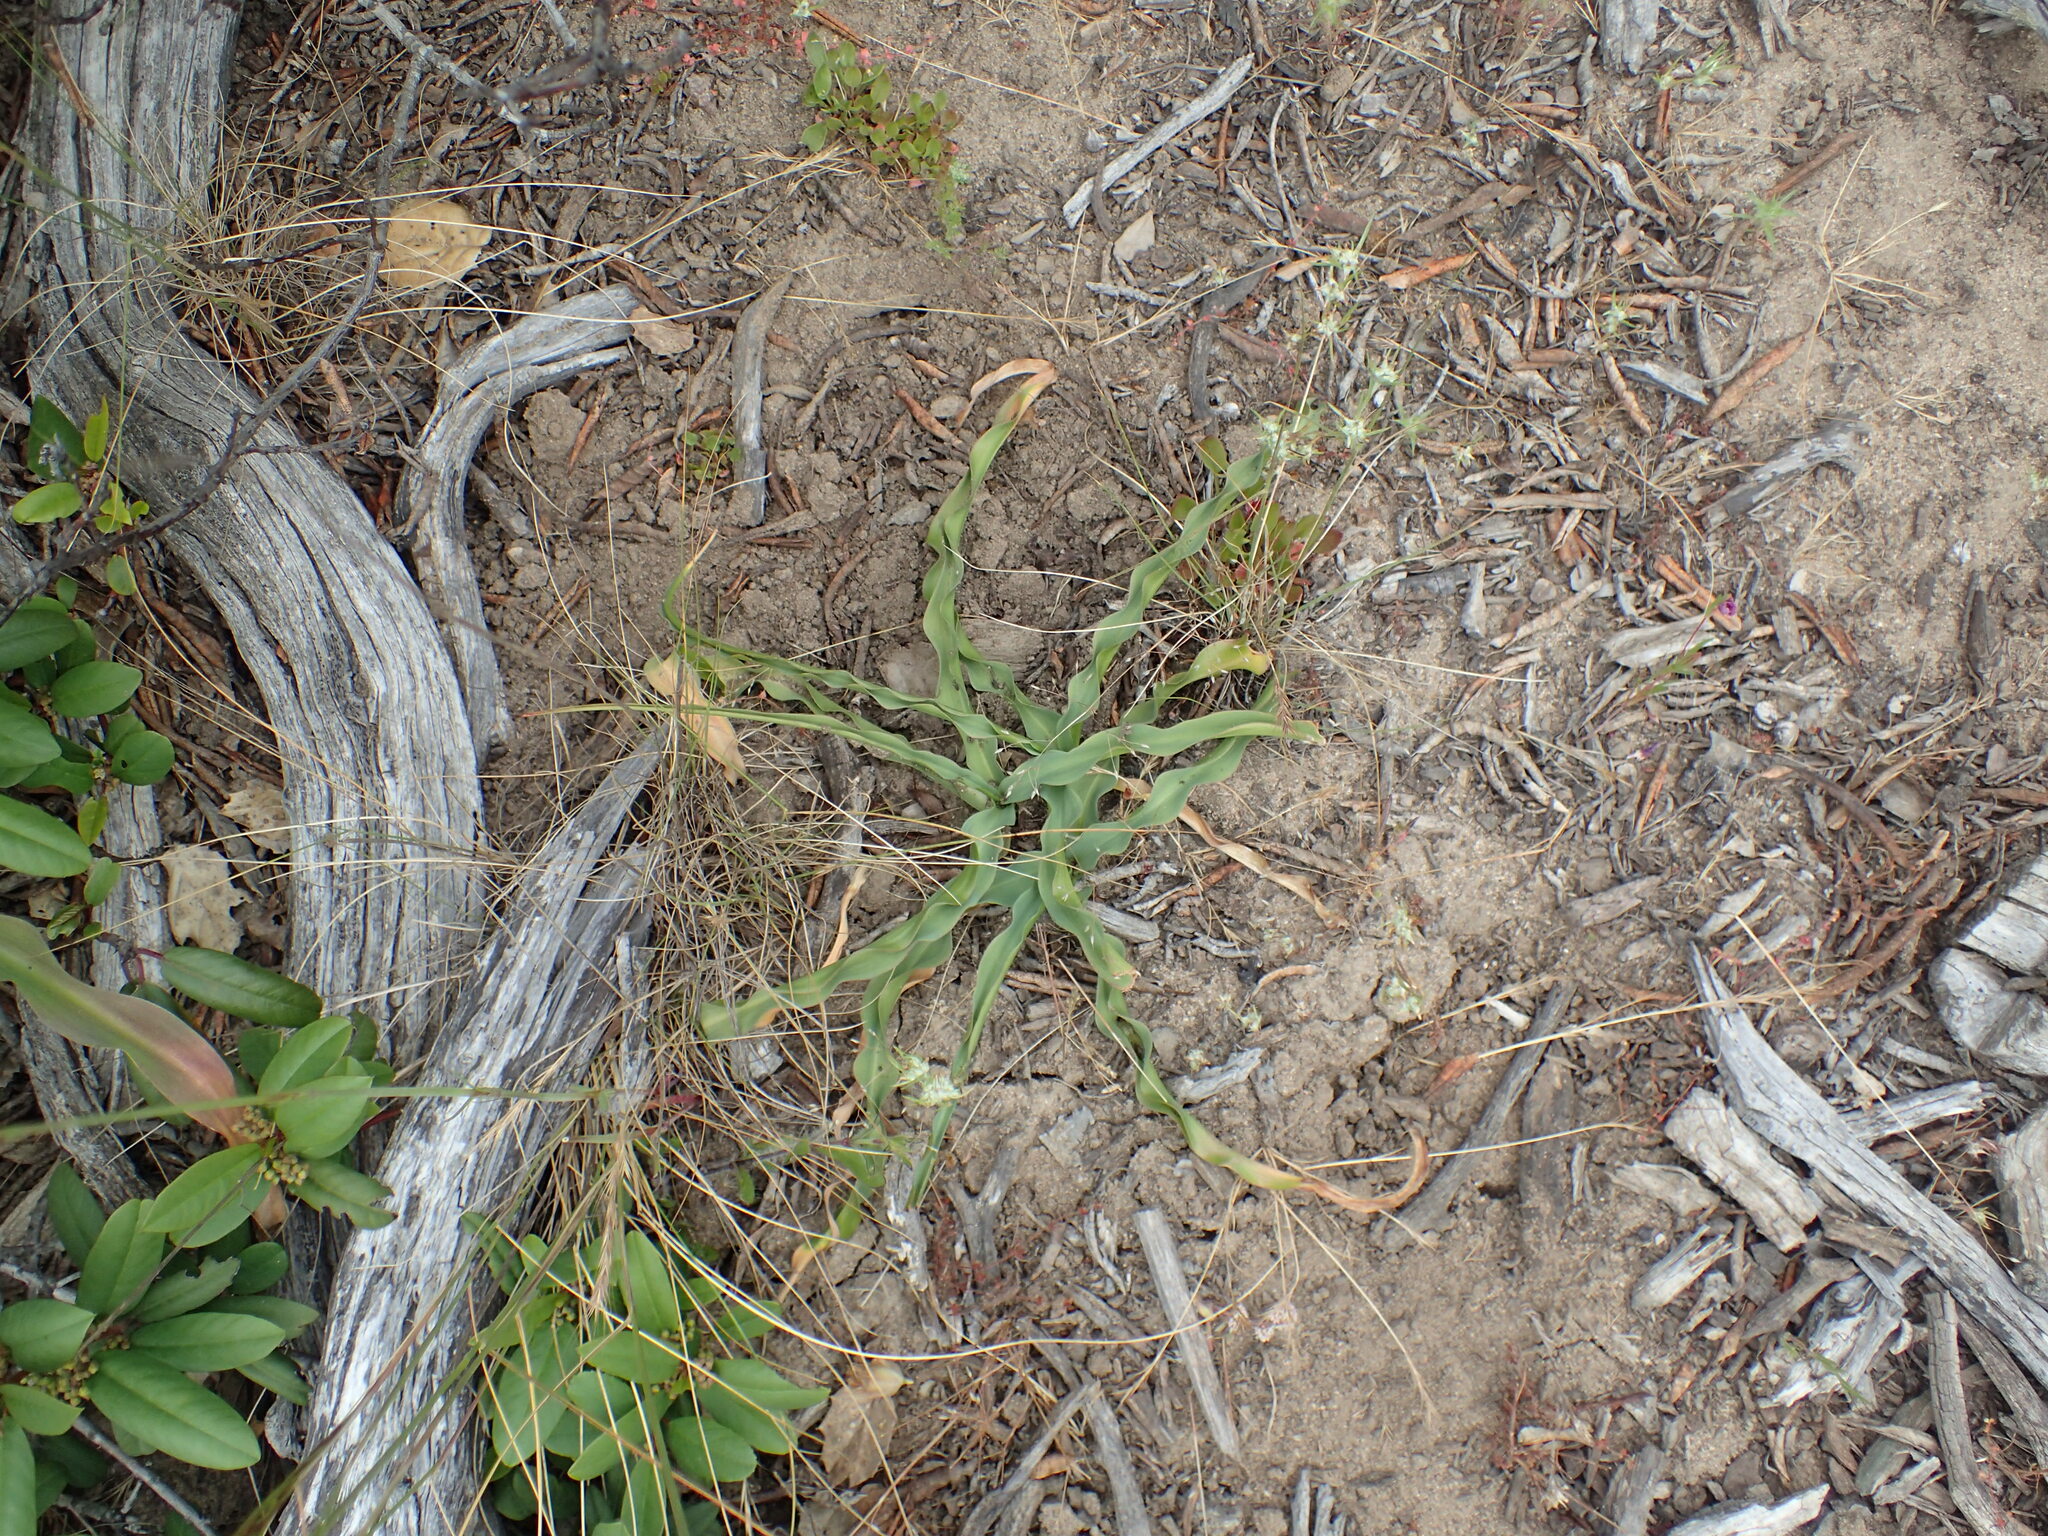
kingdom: Plantae
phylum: Tracheophyta
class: Liliopsida
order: Asparagales
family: Asparagaceae
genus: Chlorogalum
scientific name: Chlorogalum pomeridianum
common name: Amole
